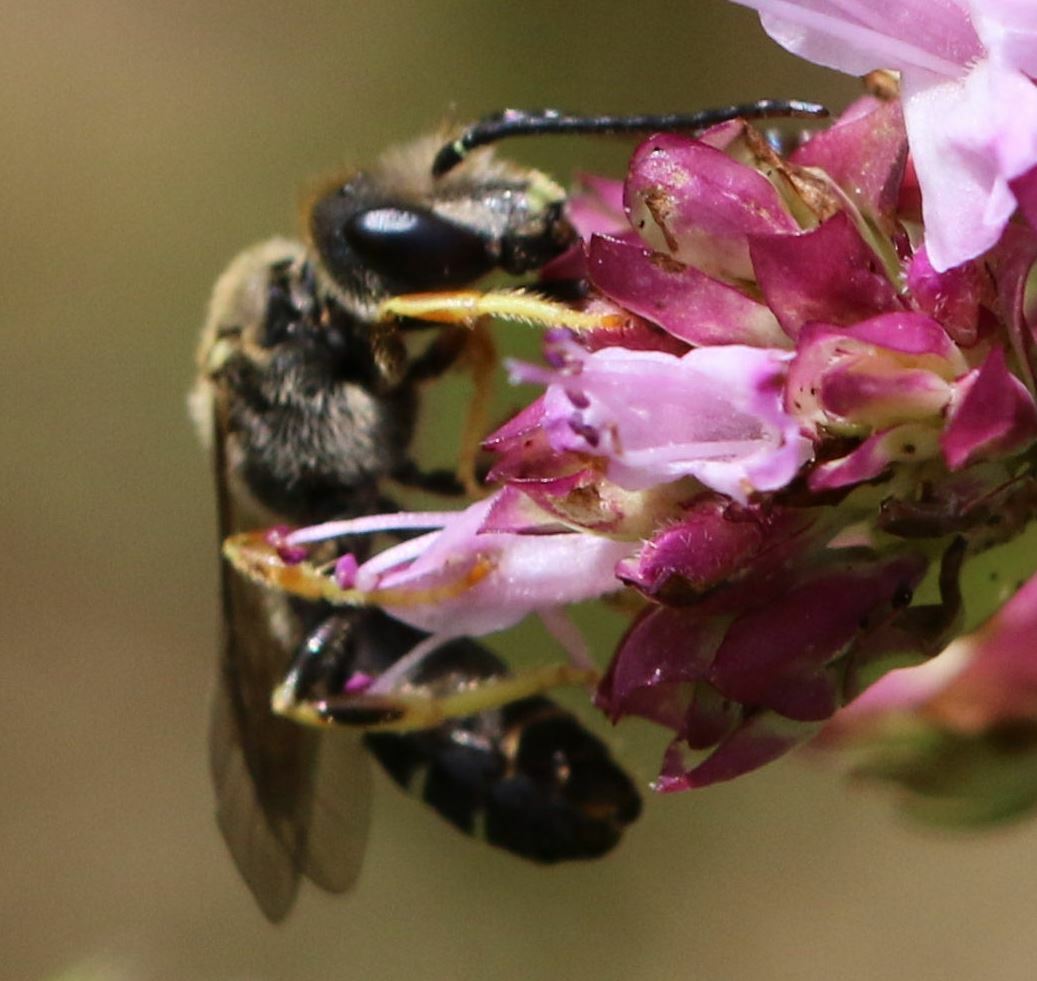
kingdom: Animalia
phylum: Arthropoda
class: Insecta
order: Hymenoptera
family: Halictidae
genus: Halictus
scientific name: Halictus langobardicus
